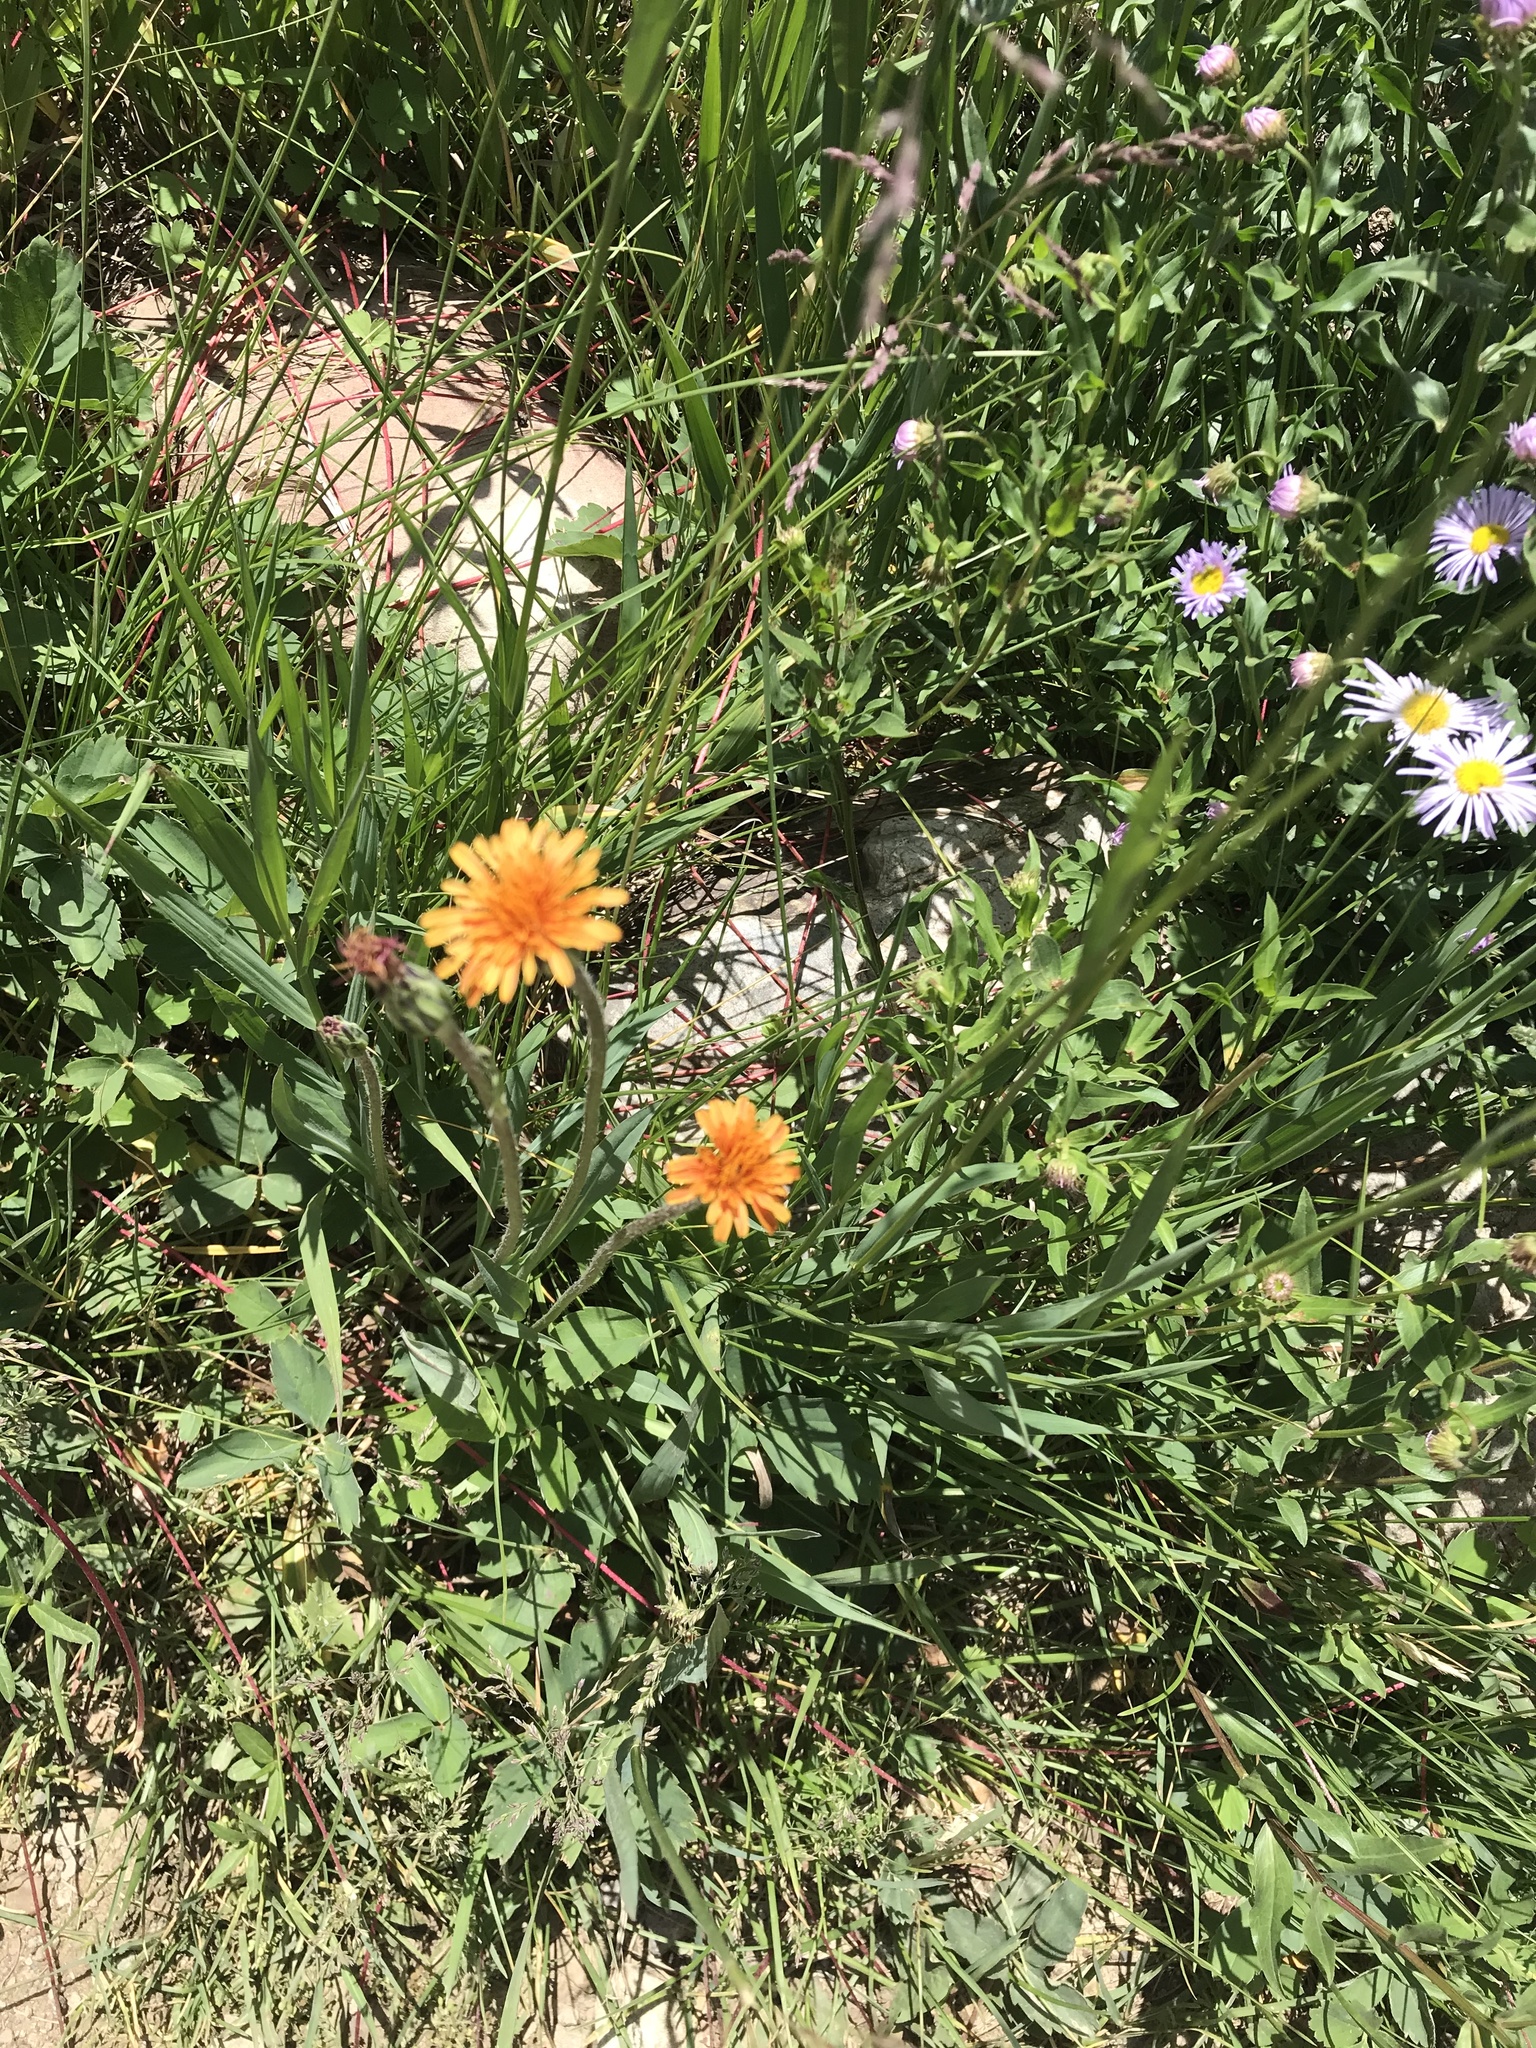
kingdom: Plantae
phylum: Tracheophyta
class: Magnoliopsida
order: Asterales
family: Asteraceae
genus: Agoseris
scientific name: Agoseris aurantiaca
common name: Mountain agoseris
